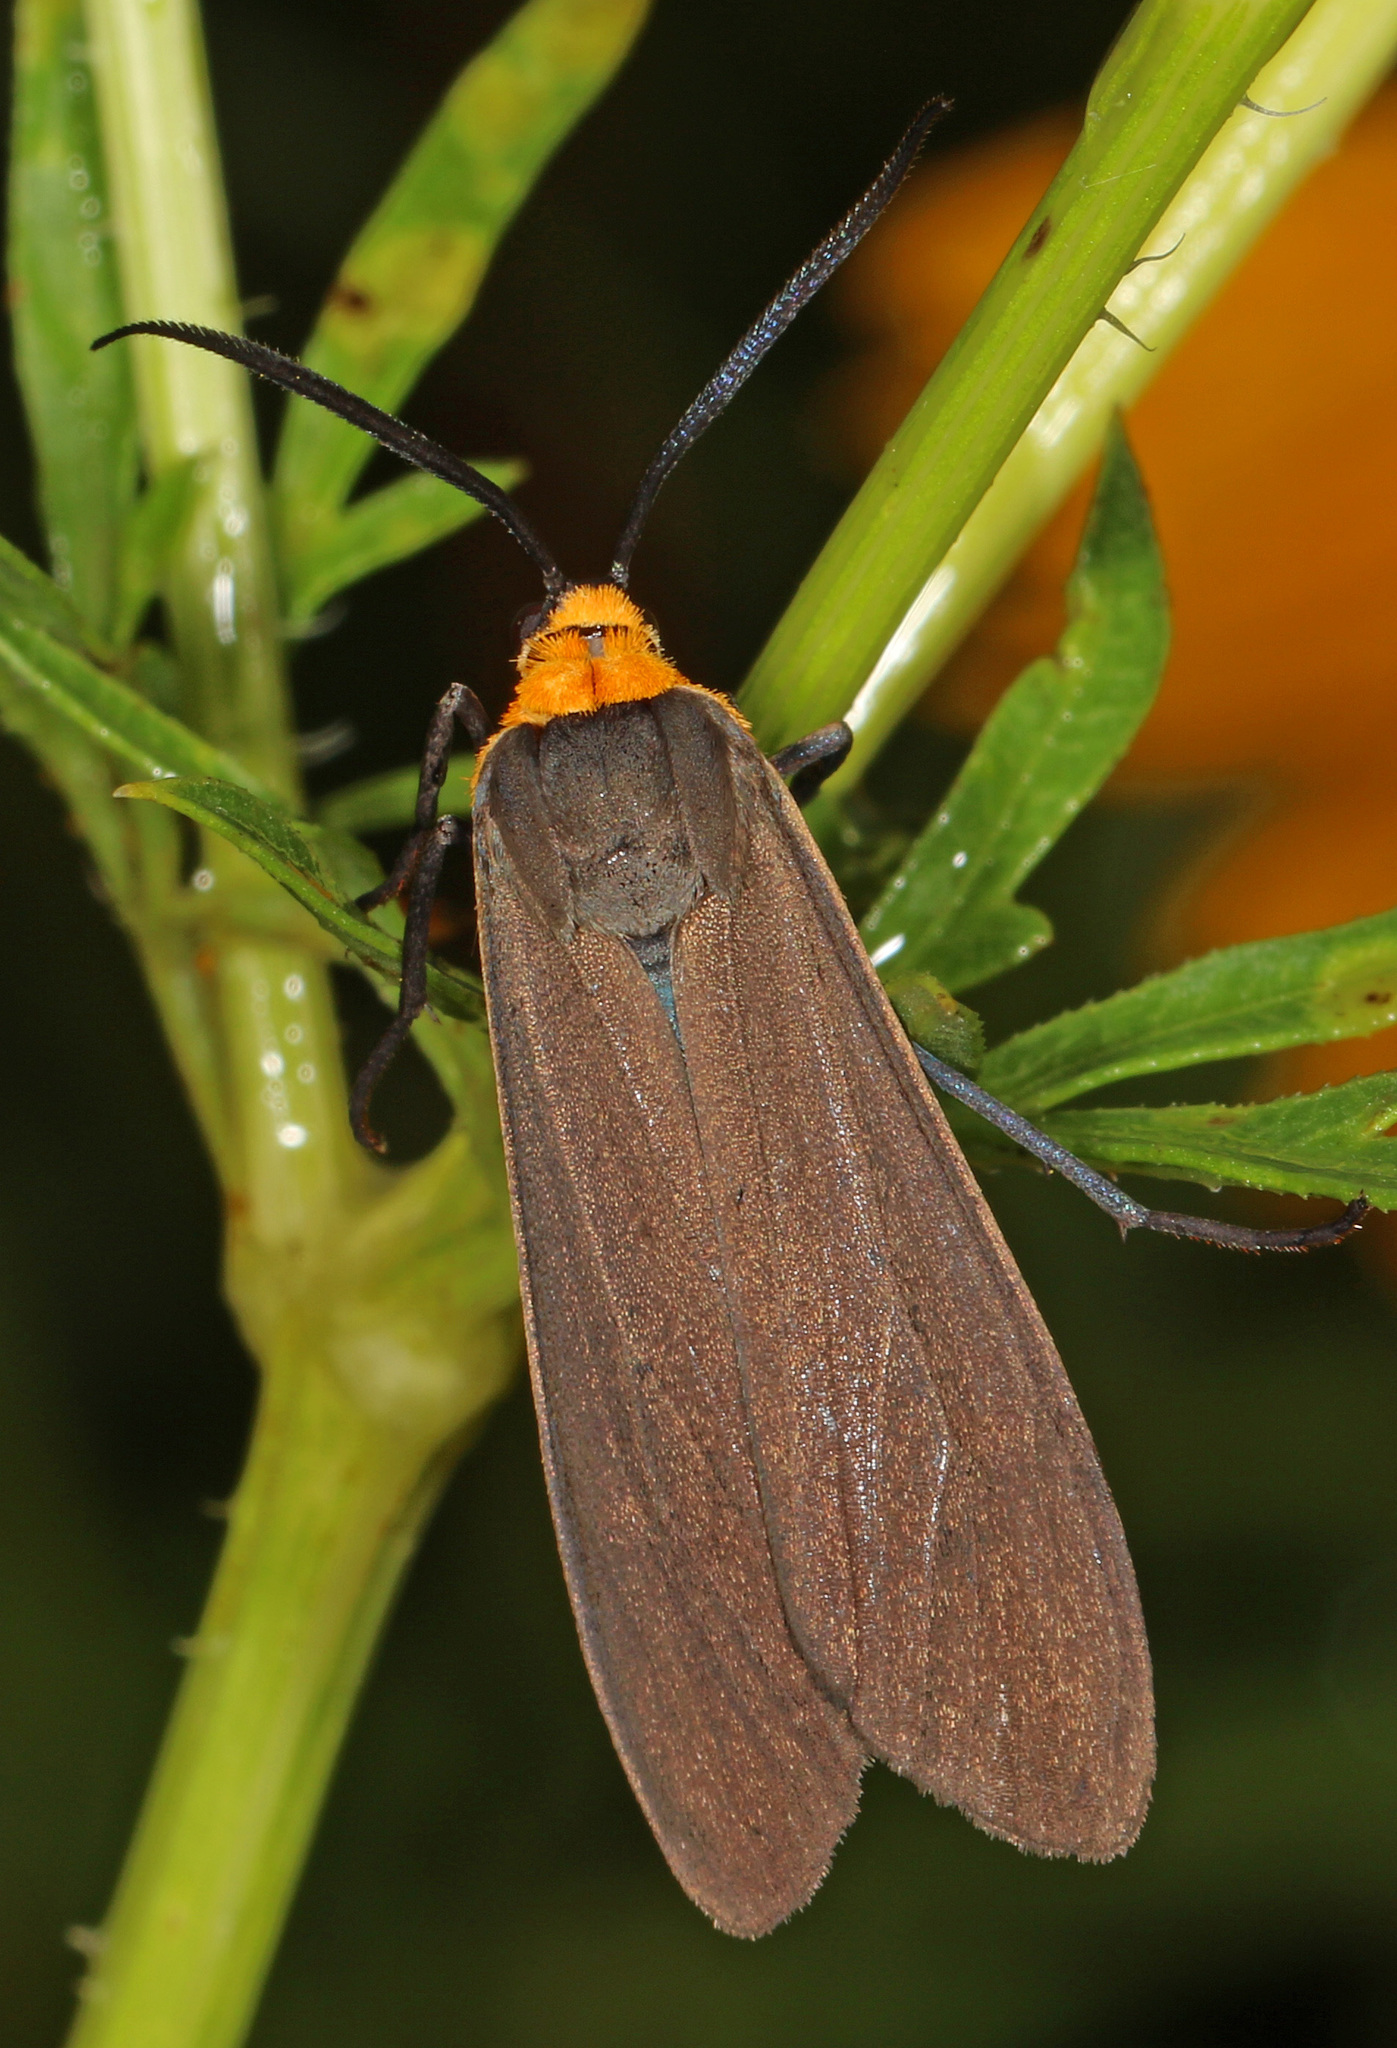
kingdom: Animalia
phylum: Arthropoda
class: Insecta
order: Lepidoptera
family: Erebidae
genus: Cisseps
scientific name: Cisseps fulvicollis
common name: Yellow-collared scape moth
